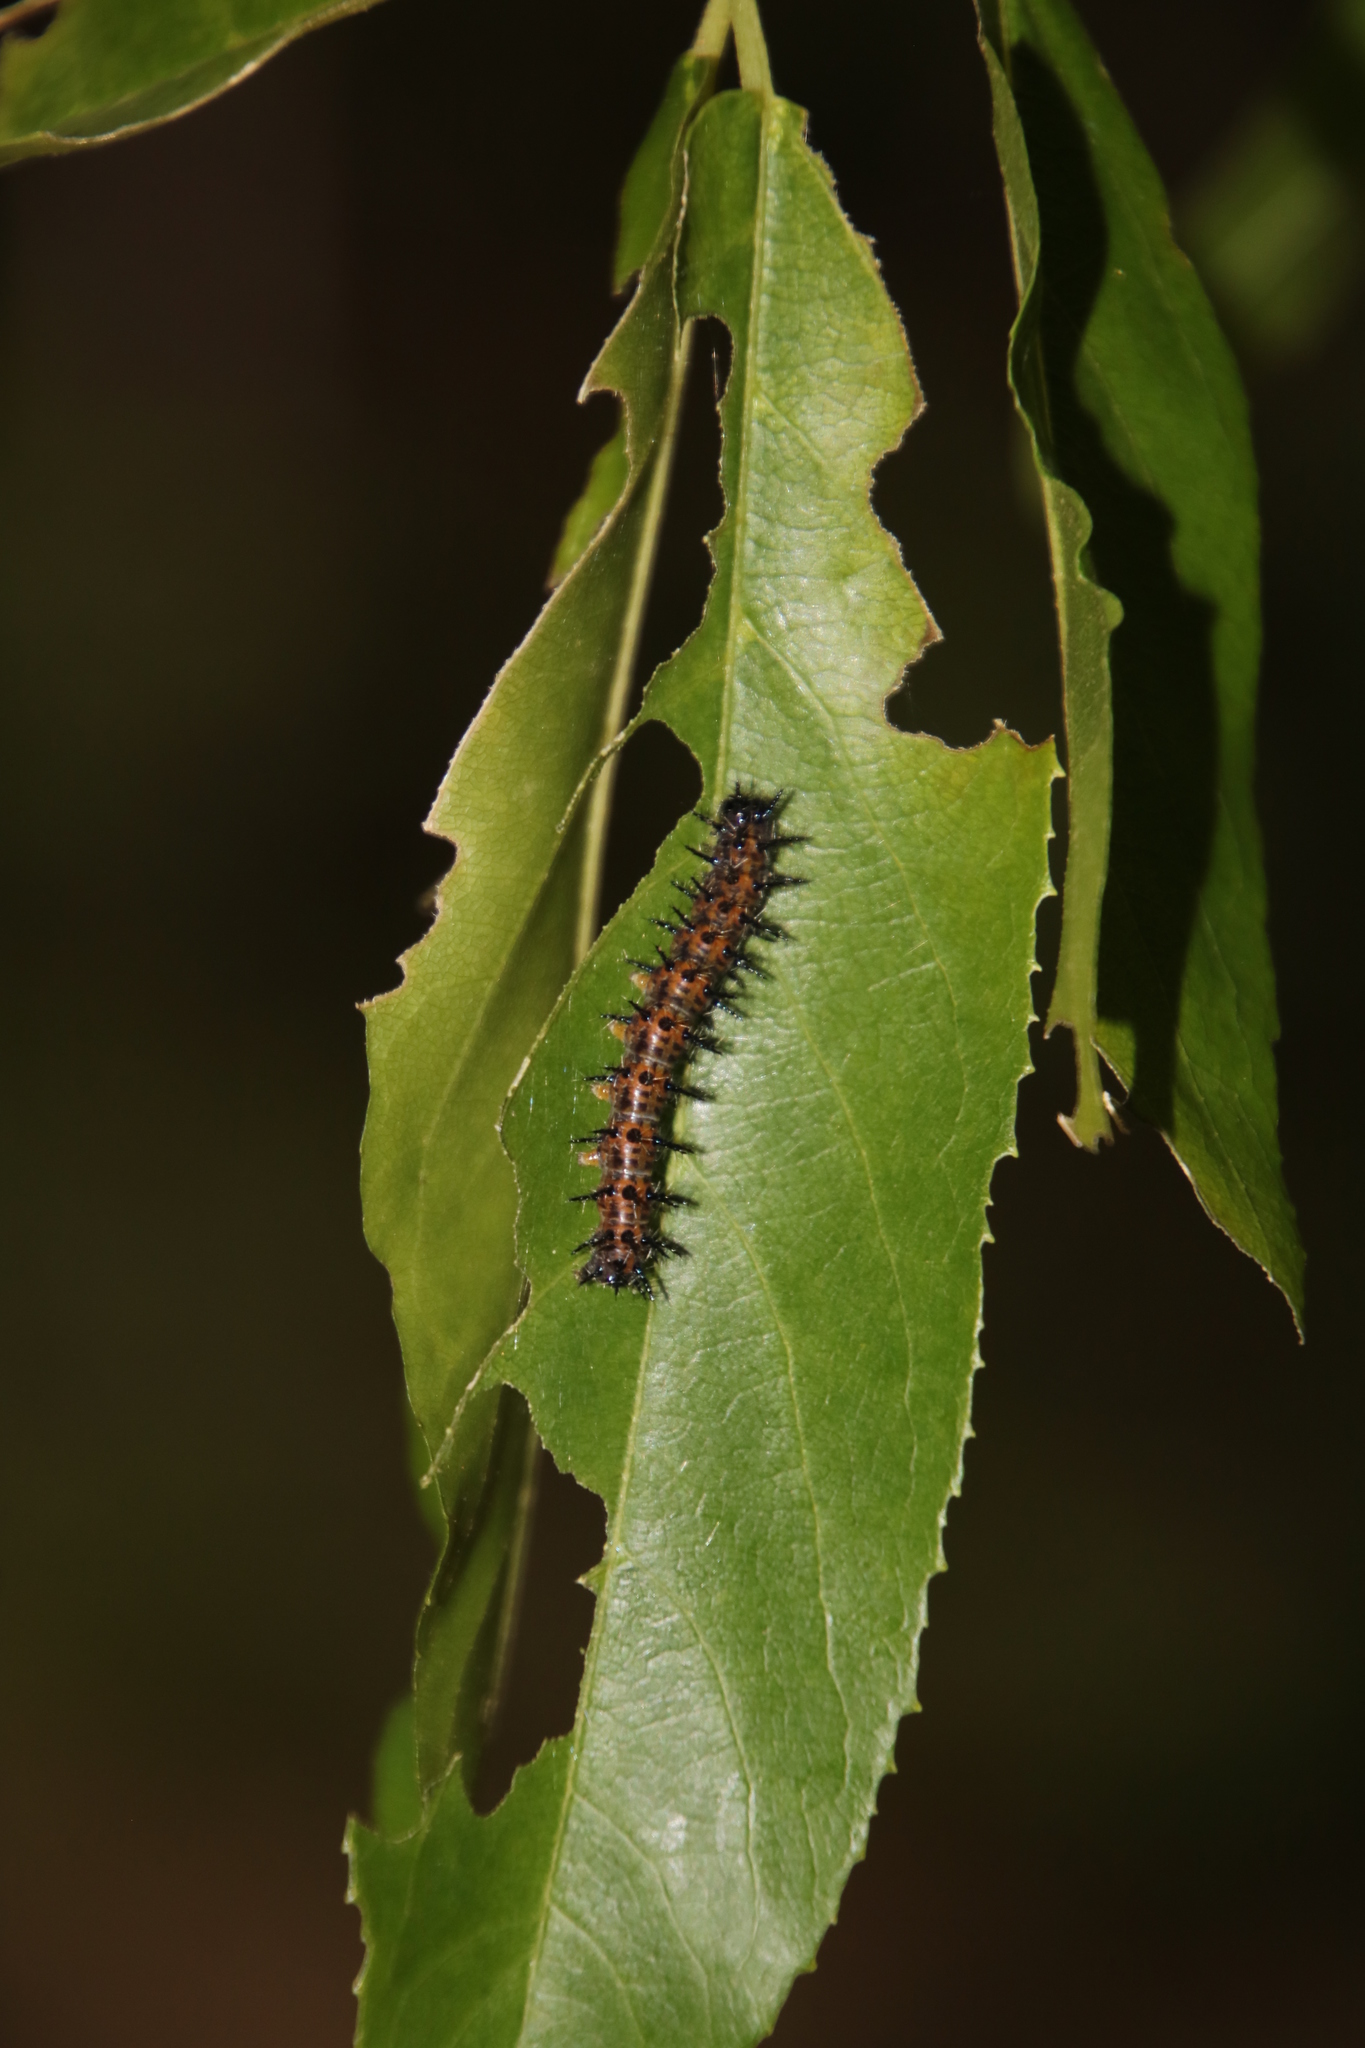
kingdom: Animalia
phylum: Arthropoda
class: Insecta
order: Lepidoptera
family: Nymphalidae
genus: Acraea
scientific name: Acraea horta
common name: Garden acraea
